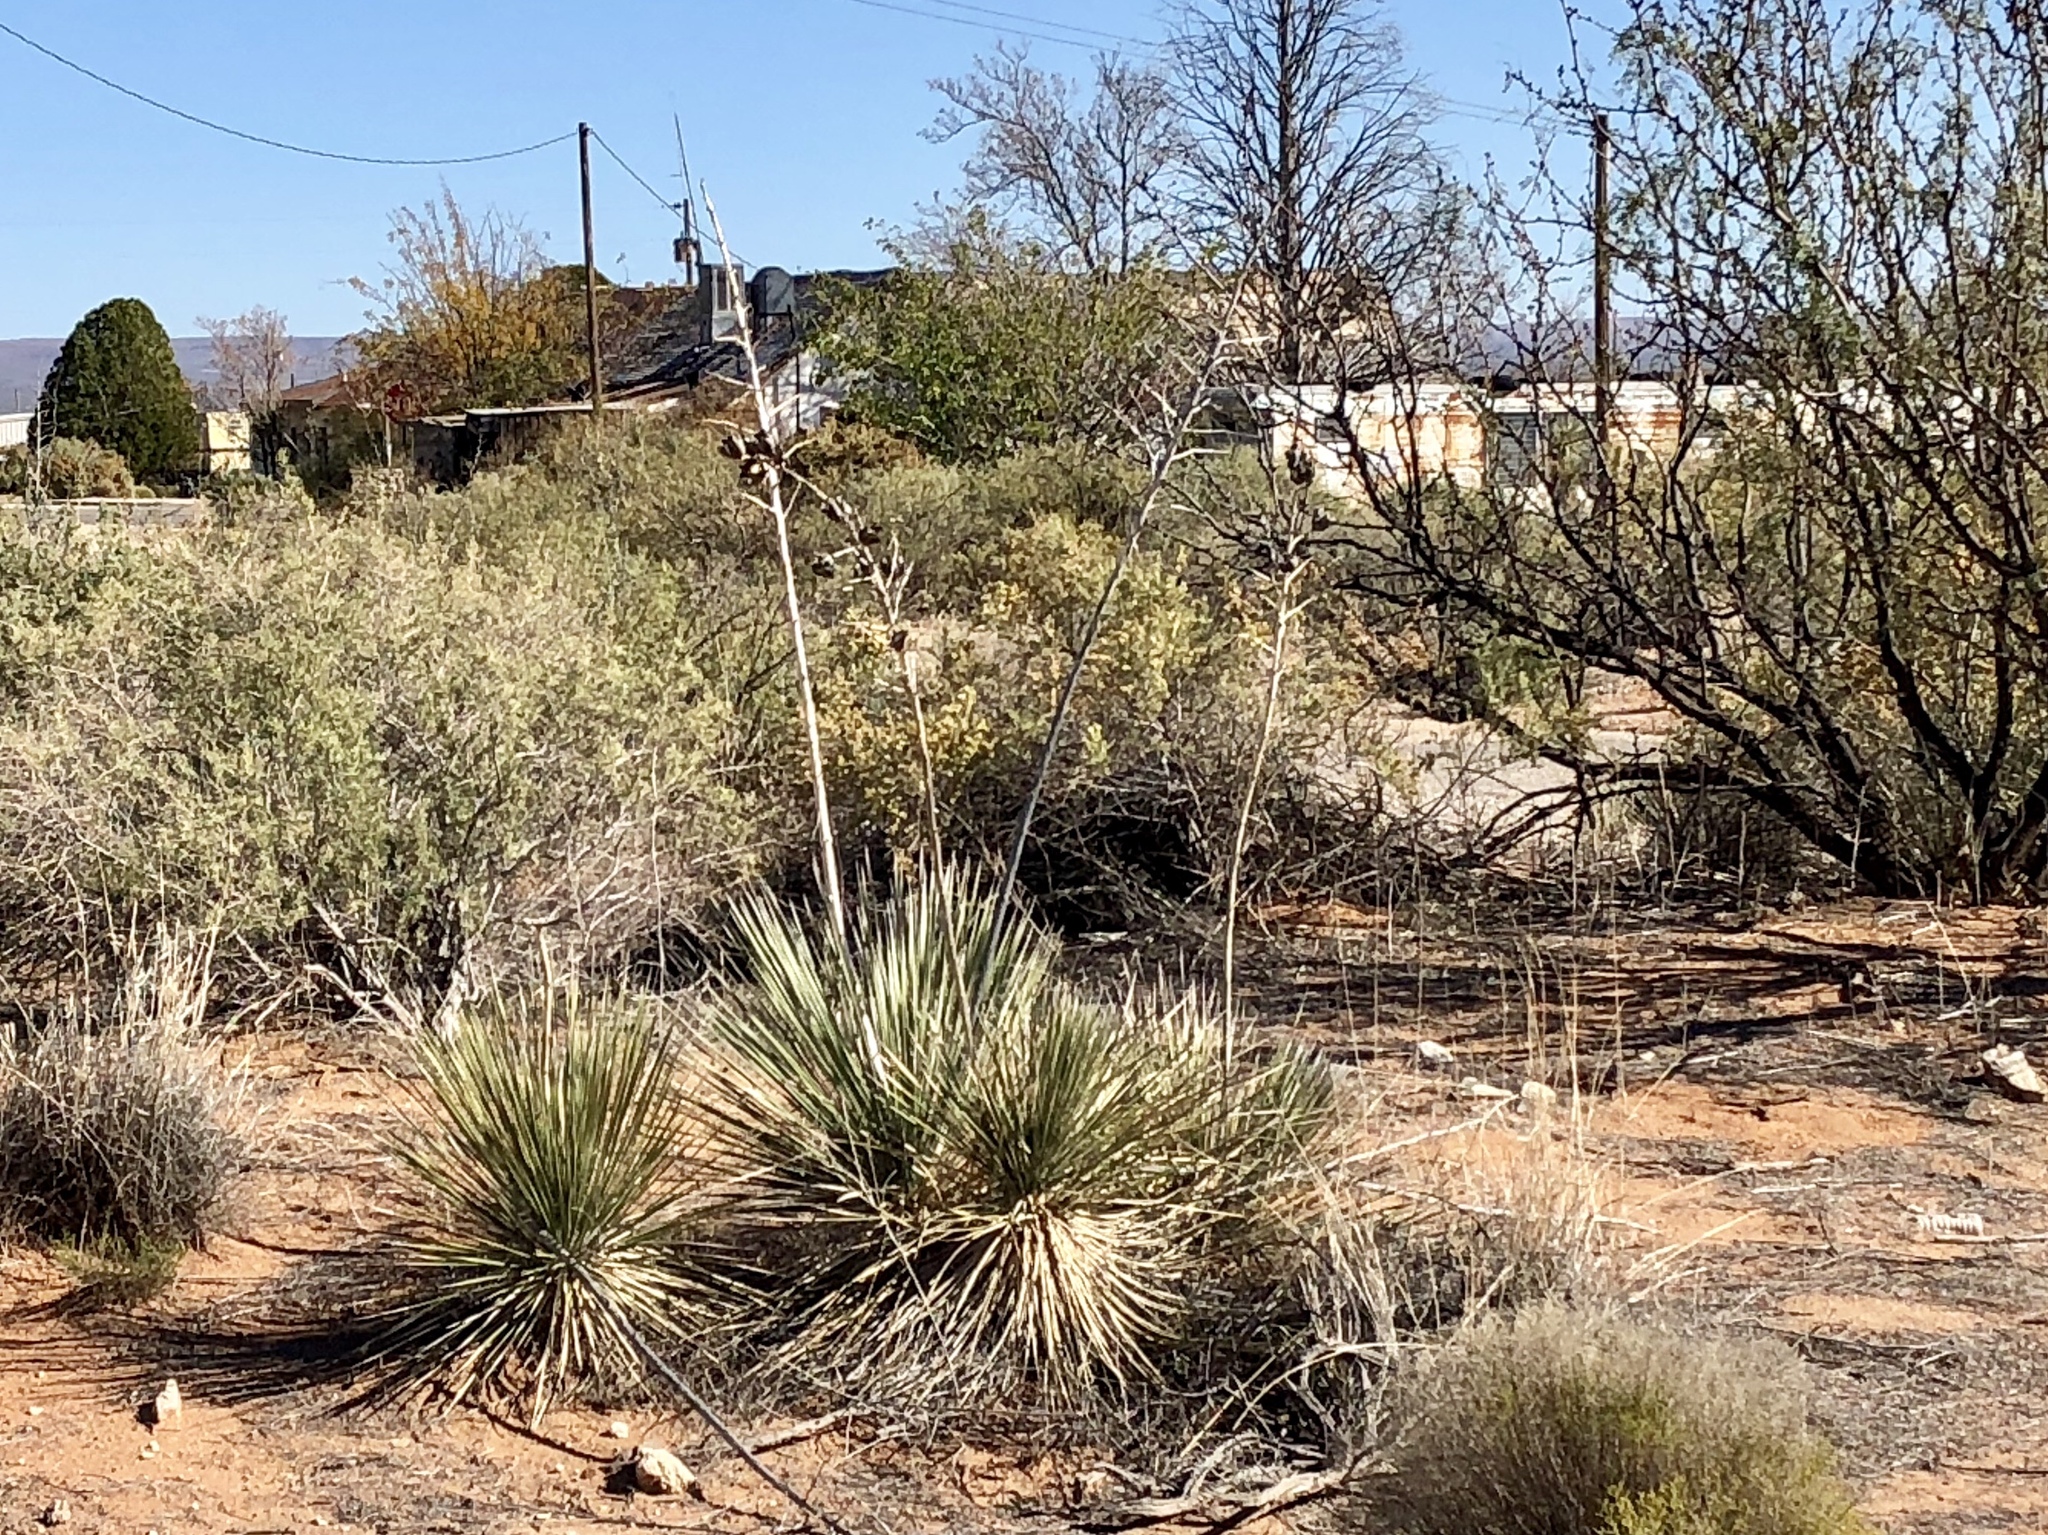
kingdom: Plantae
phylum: Tracheophyta
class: Liliopsida
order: Asparagales
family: Asparagaceae
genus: Yucca
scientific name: Yucca elata
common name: Palmella
